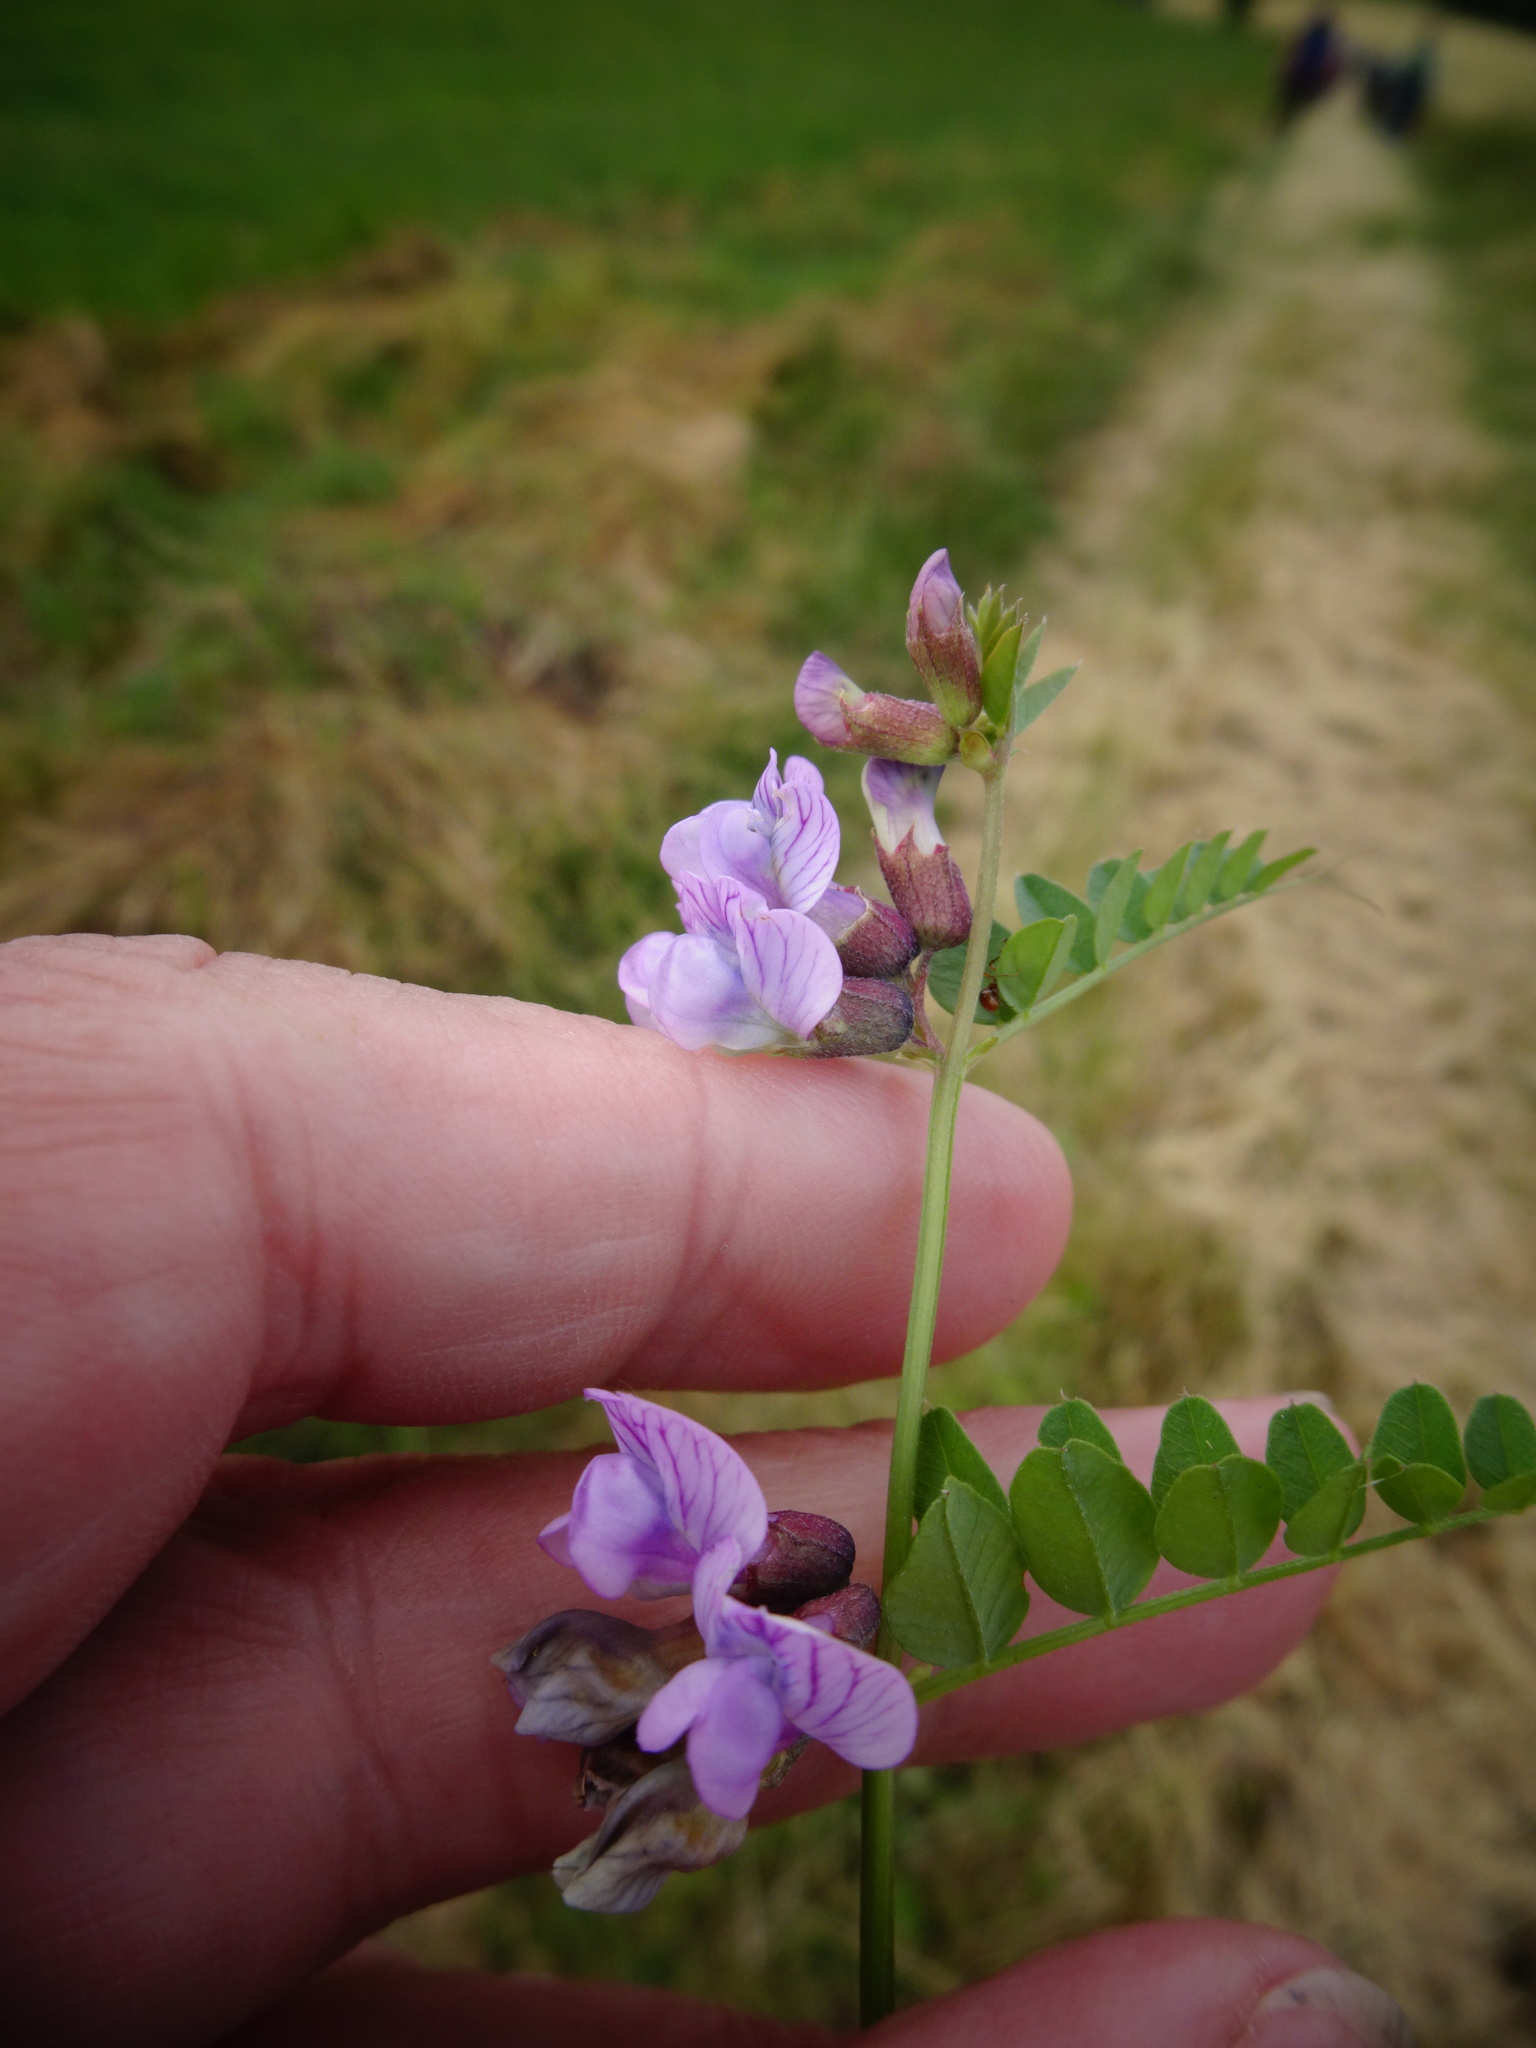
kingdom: Plantae
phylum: Tracheophyta
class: Magnoliopsida
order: Fabales
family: Fabaceae
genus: Vicia
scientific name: Vicia sepium
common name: Bush vetch
